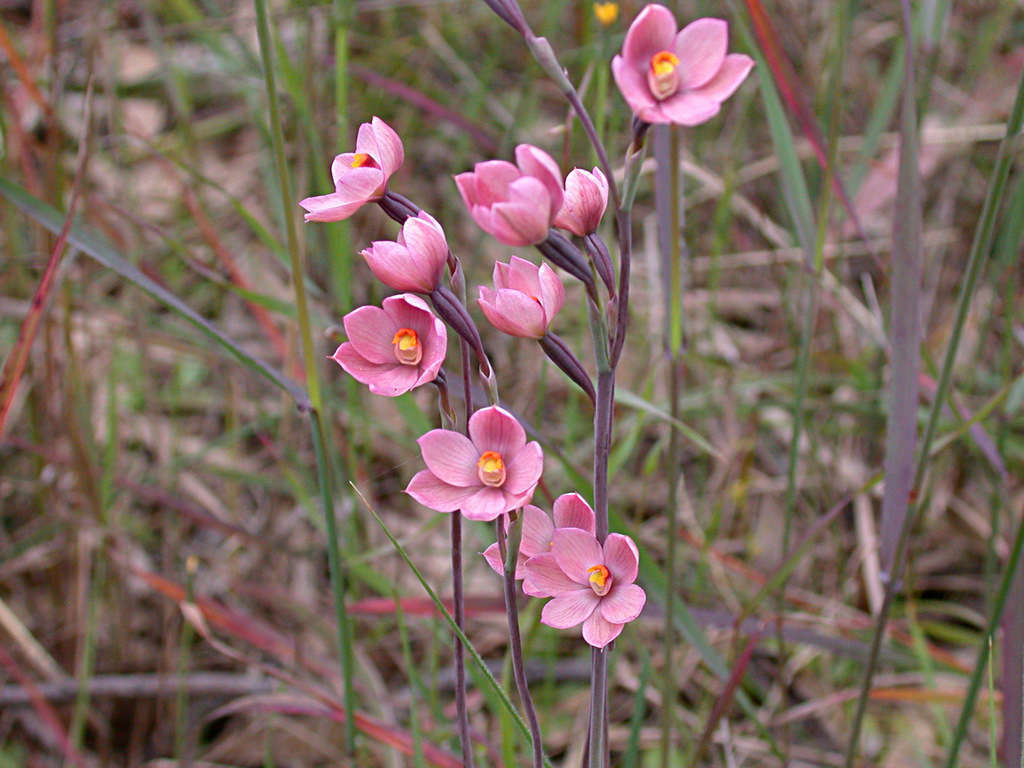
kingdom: Plantae
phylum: Tracheophyta
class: Liliopsida
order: Asparagales
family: Orchidaceae
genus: Thelymitra
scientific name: Thelymitra rubra
